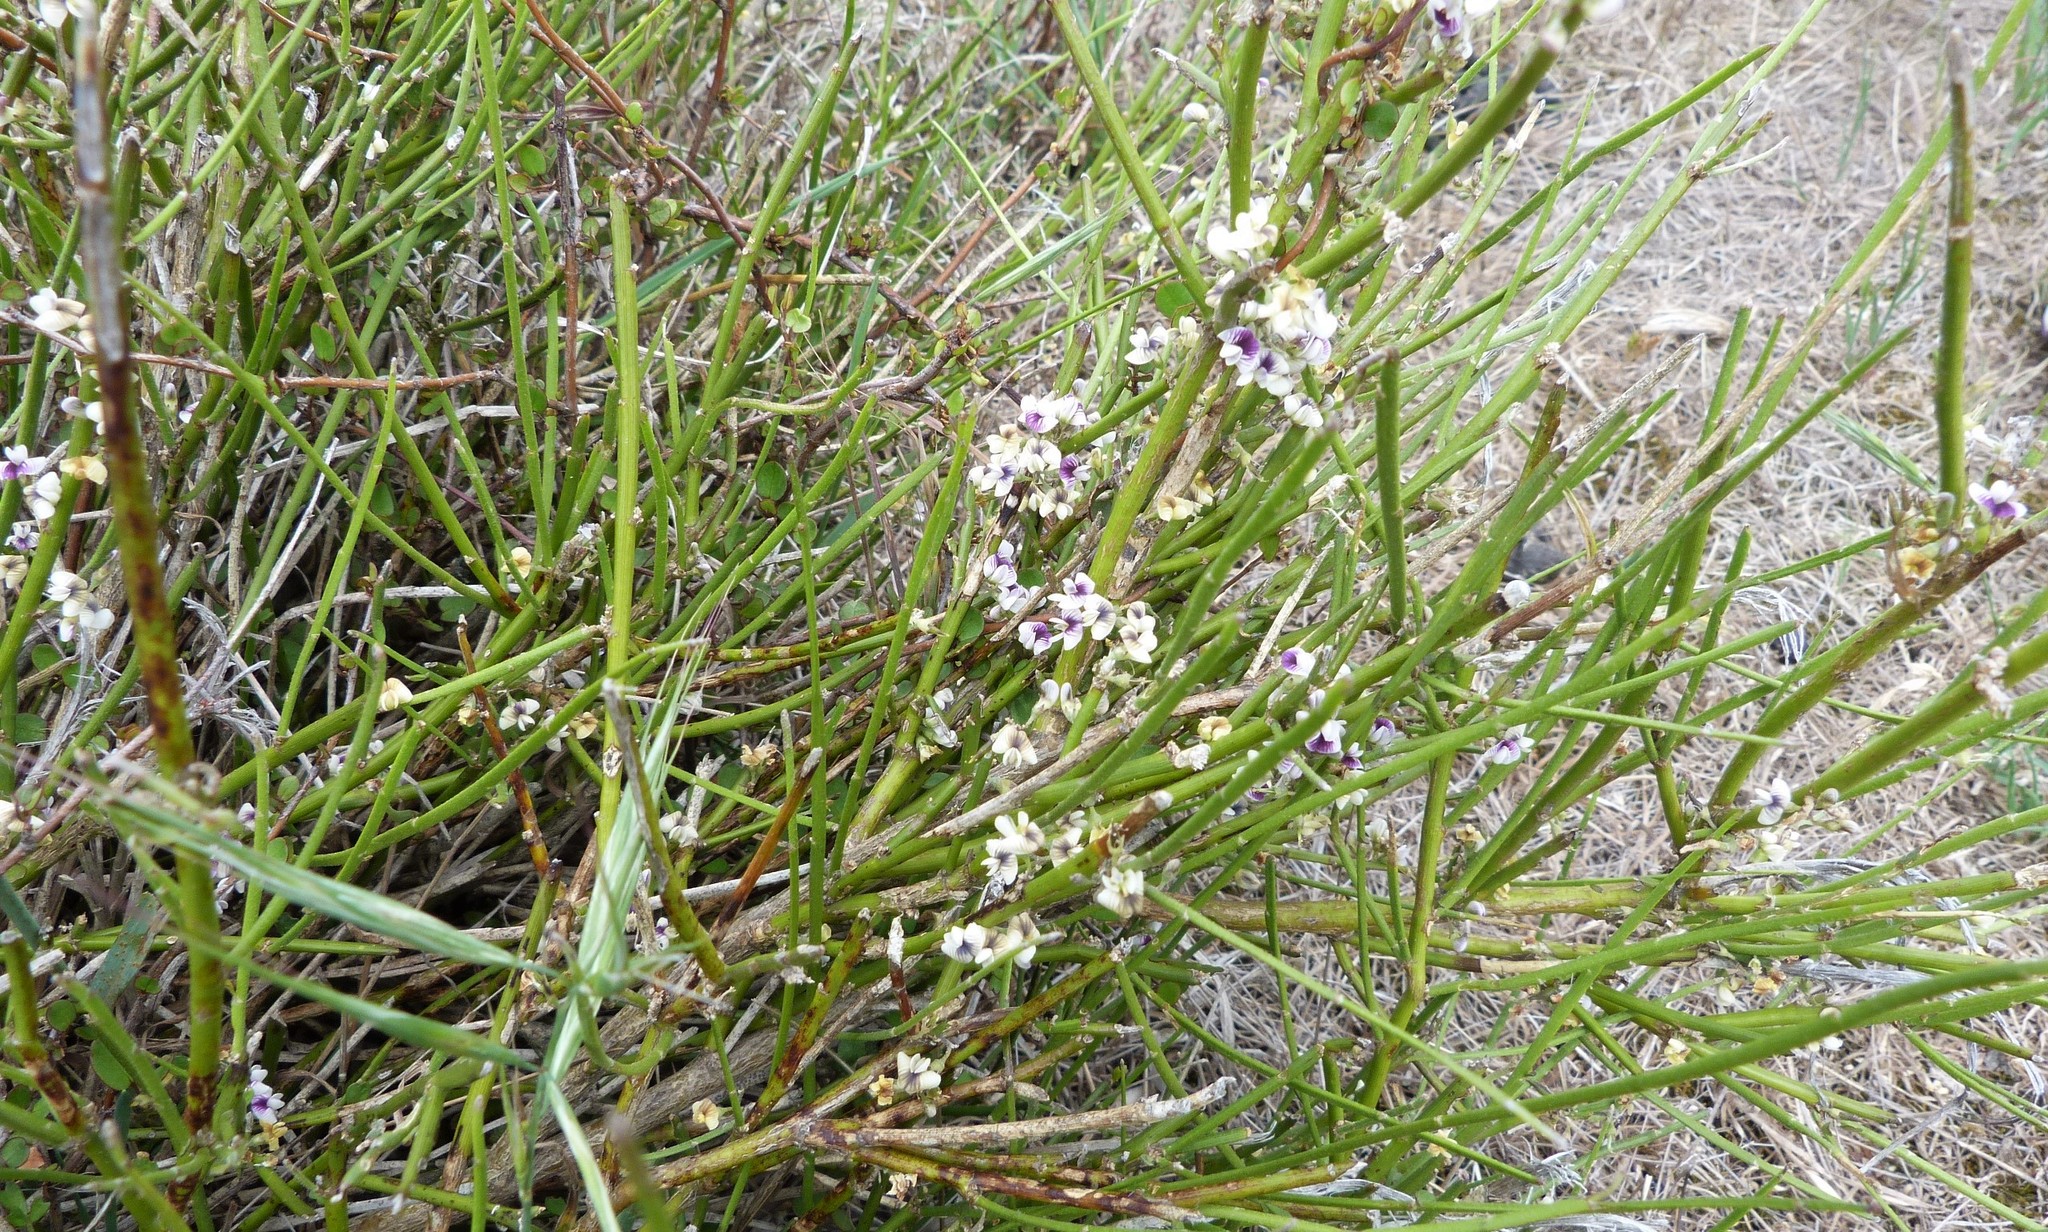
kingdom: Plantae
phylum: Tracheophyta
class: Magnoliopsida
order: Fabales
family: Fabaceae
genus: Carmichaelia
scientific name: Carmichaelia australis
